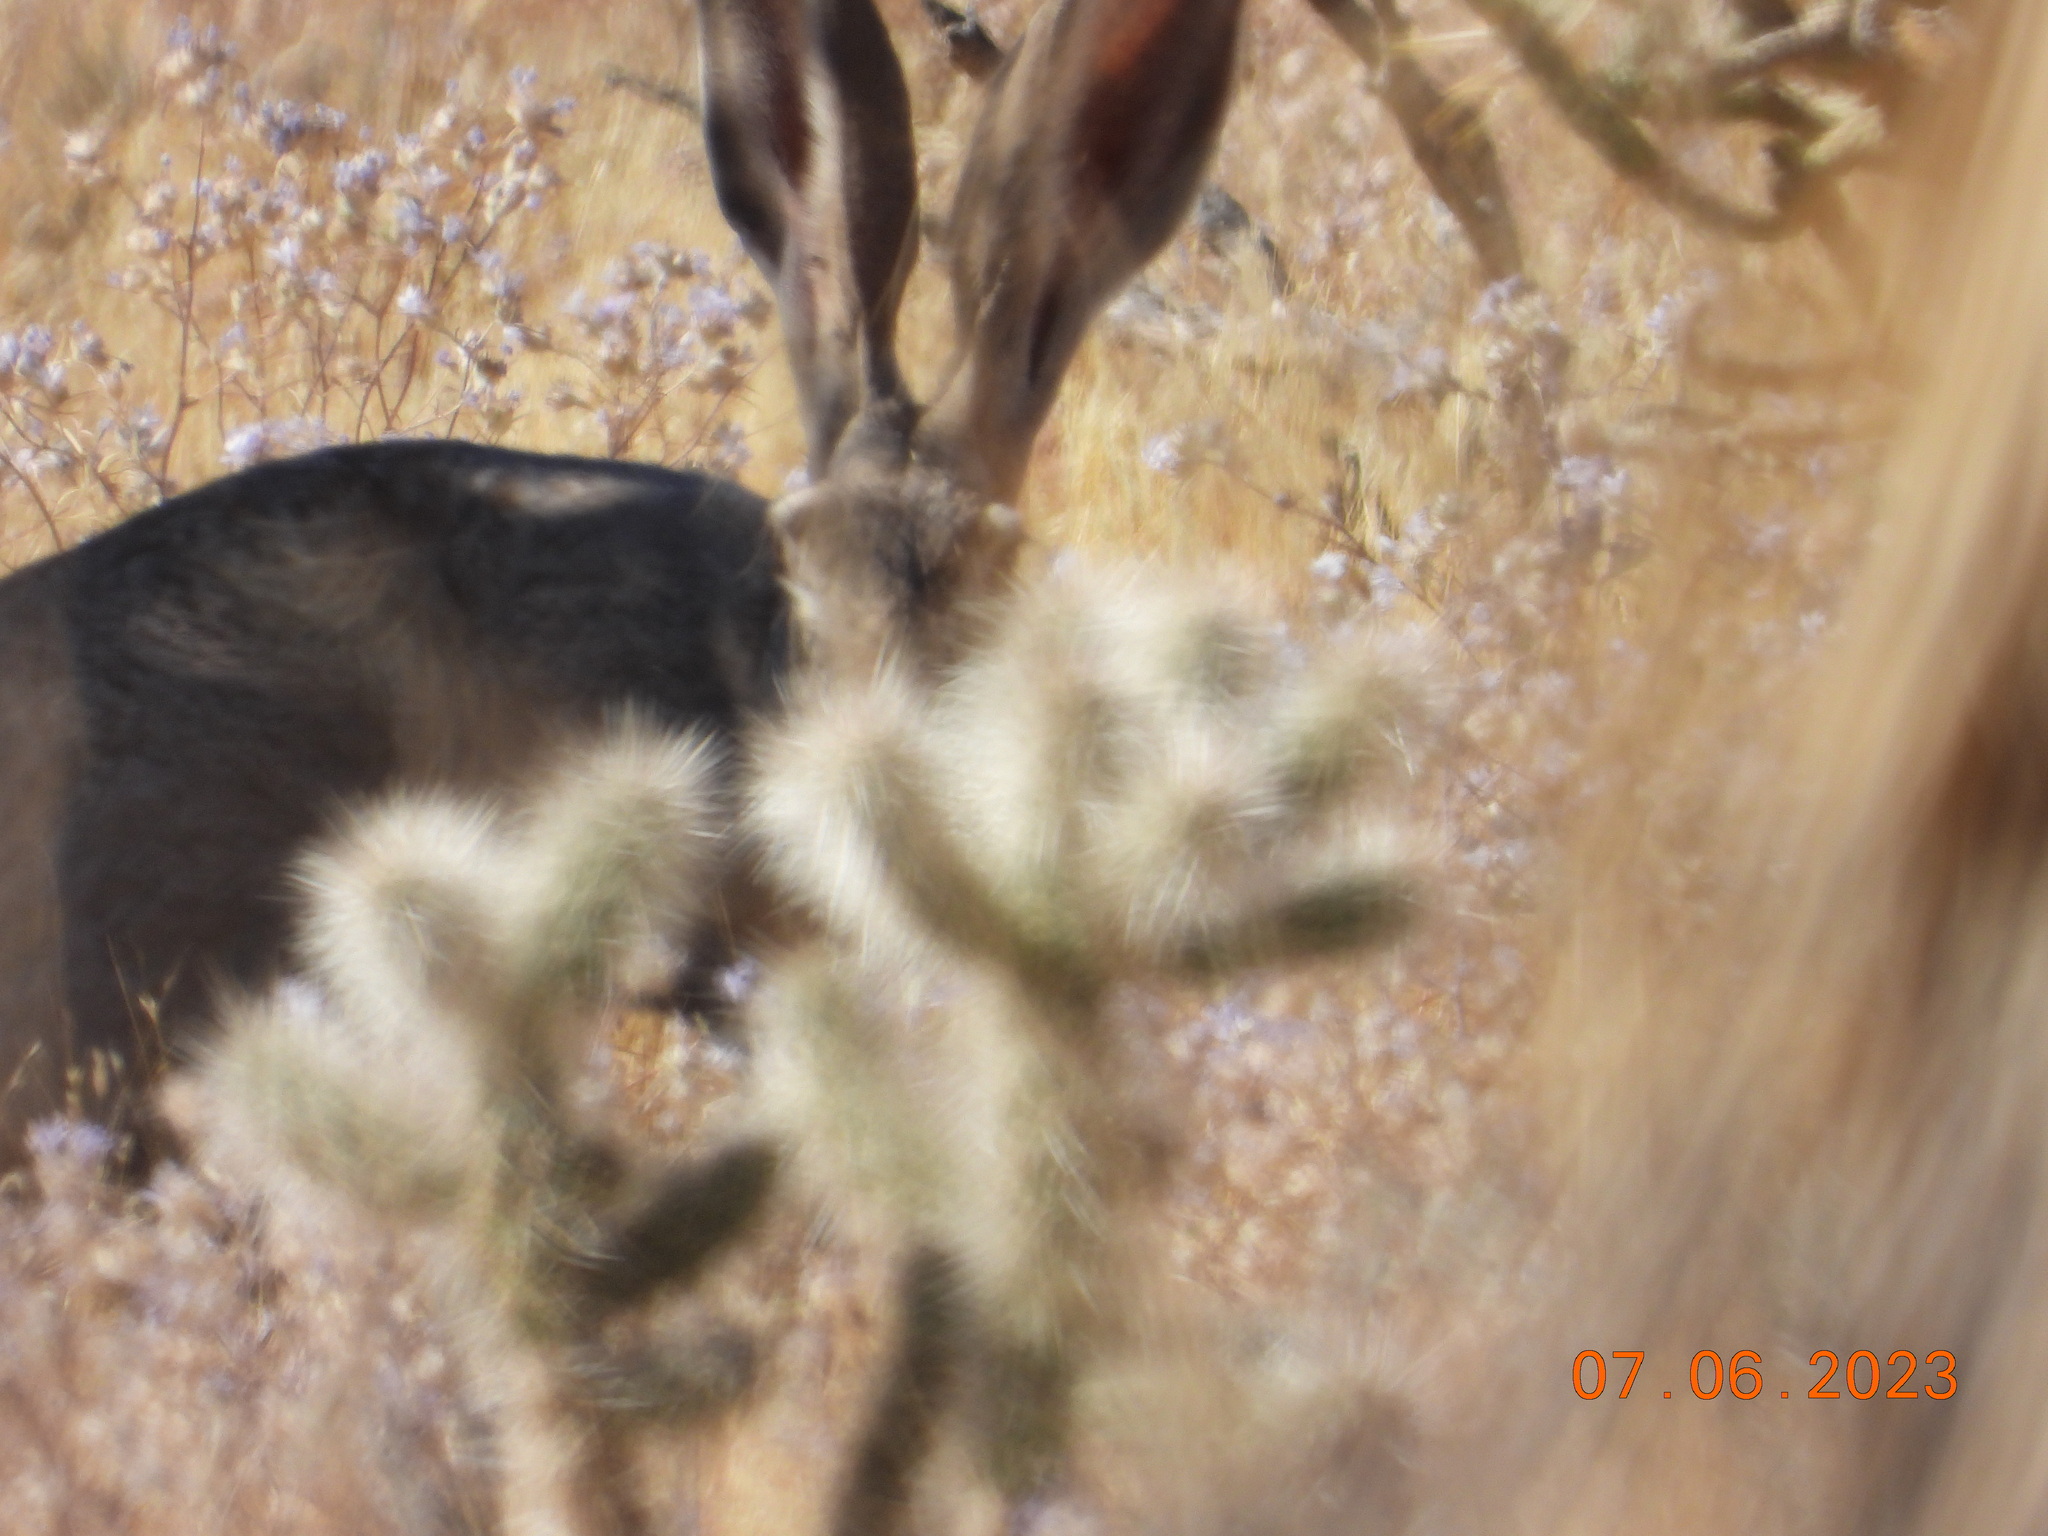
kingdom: Animalia
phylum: Chordata
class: Mammalia
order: Lagomorpha
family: Leporidae
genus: Lepus
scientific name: Lepus californicus
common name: Black-tailed jackrabbit
